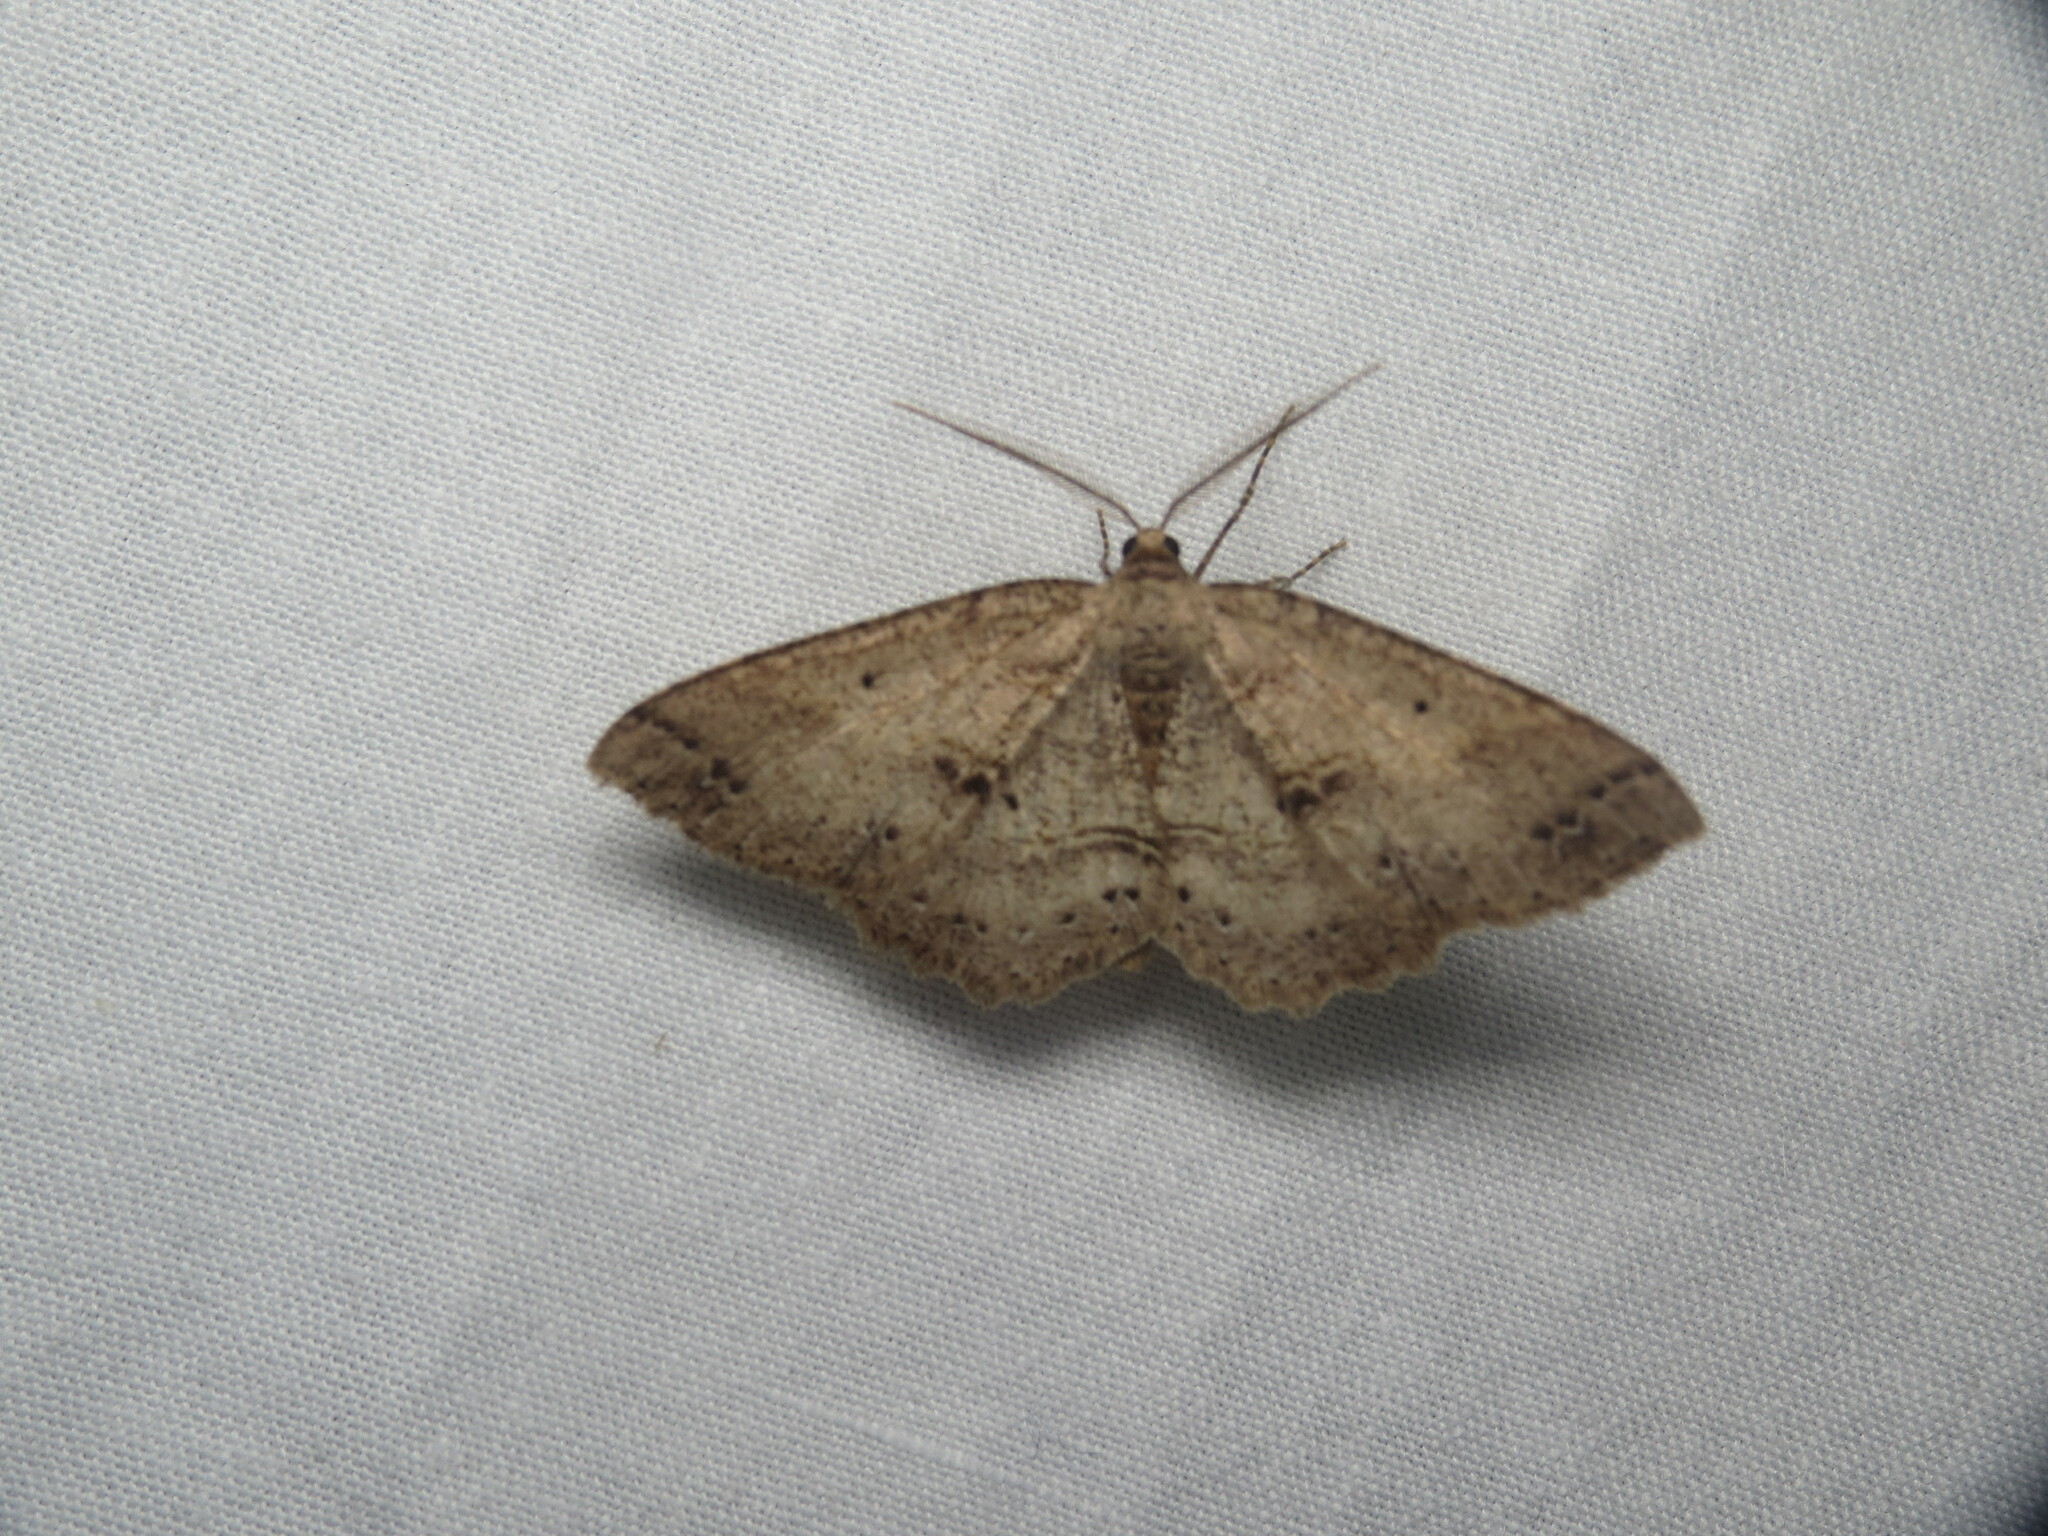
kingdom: Animalia
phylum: Arthropoda
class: Insecta
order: Lepidoptera
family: Geometridae
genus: Melanolophia
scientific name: Melanolophia signataria
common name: Signate melanolophia
